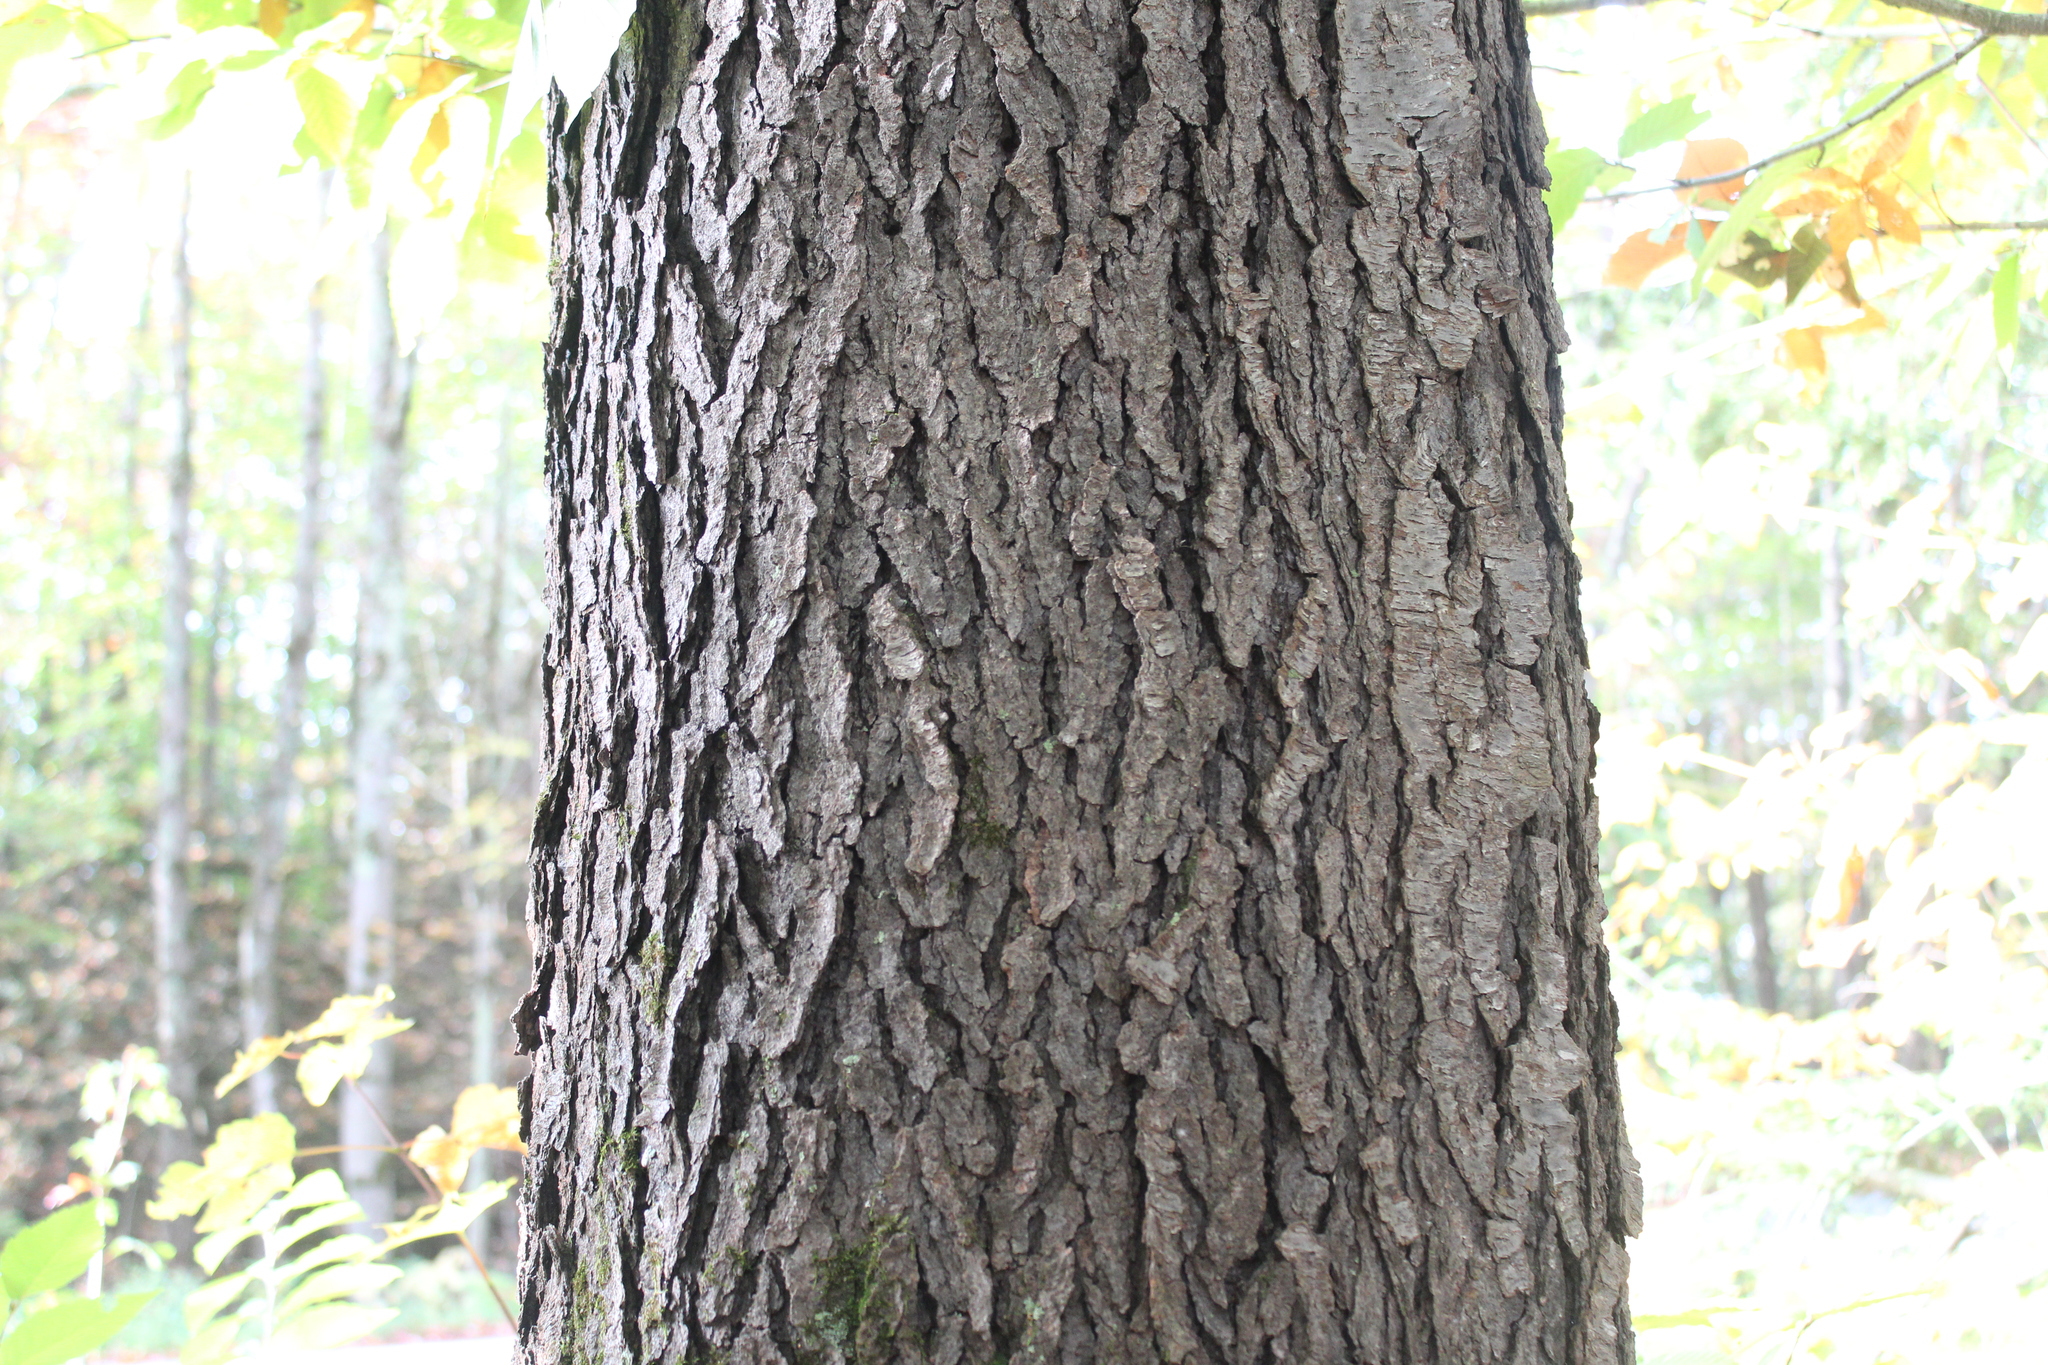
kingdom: Plantae
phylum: Tracheophyta
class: Magnoliopsida
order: Rosales
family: Rosaceae
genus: Prunus
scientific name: Prunus serotina
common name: Black cherry
